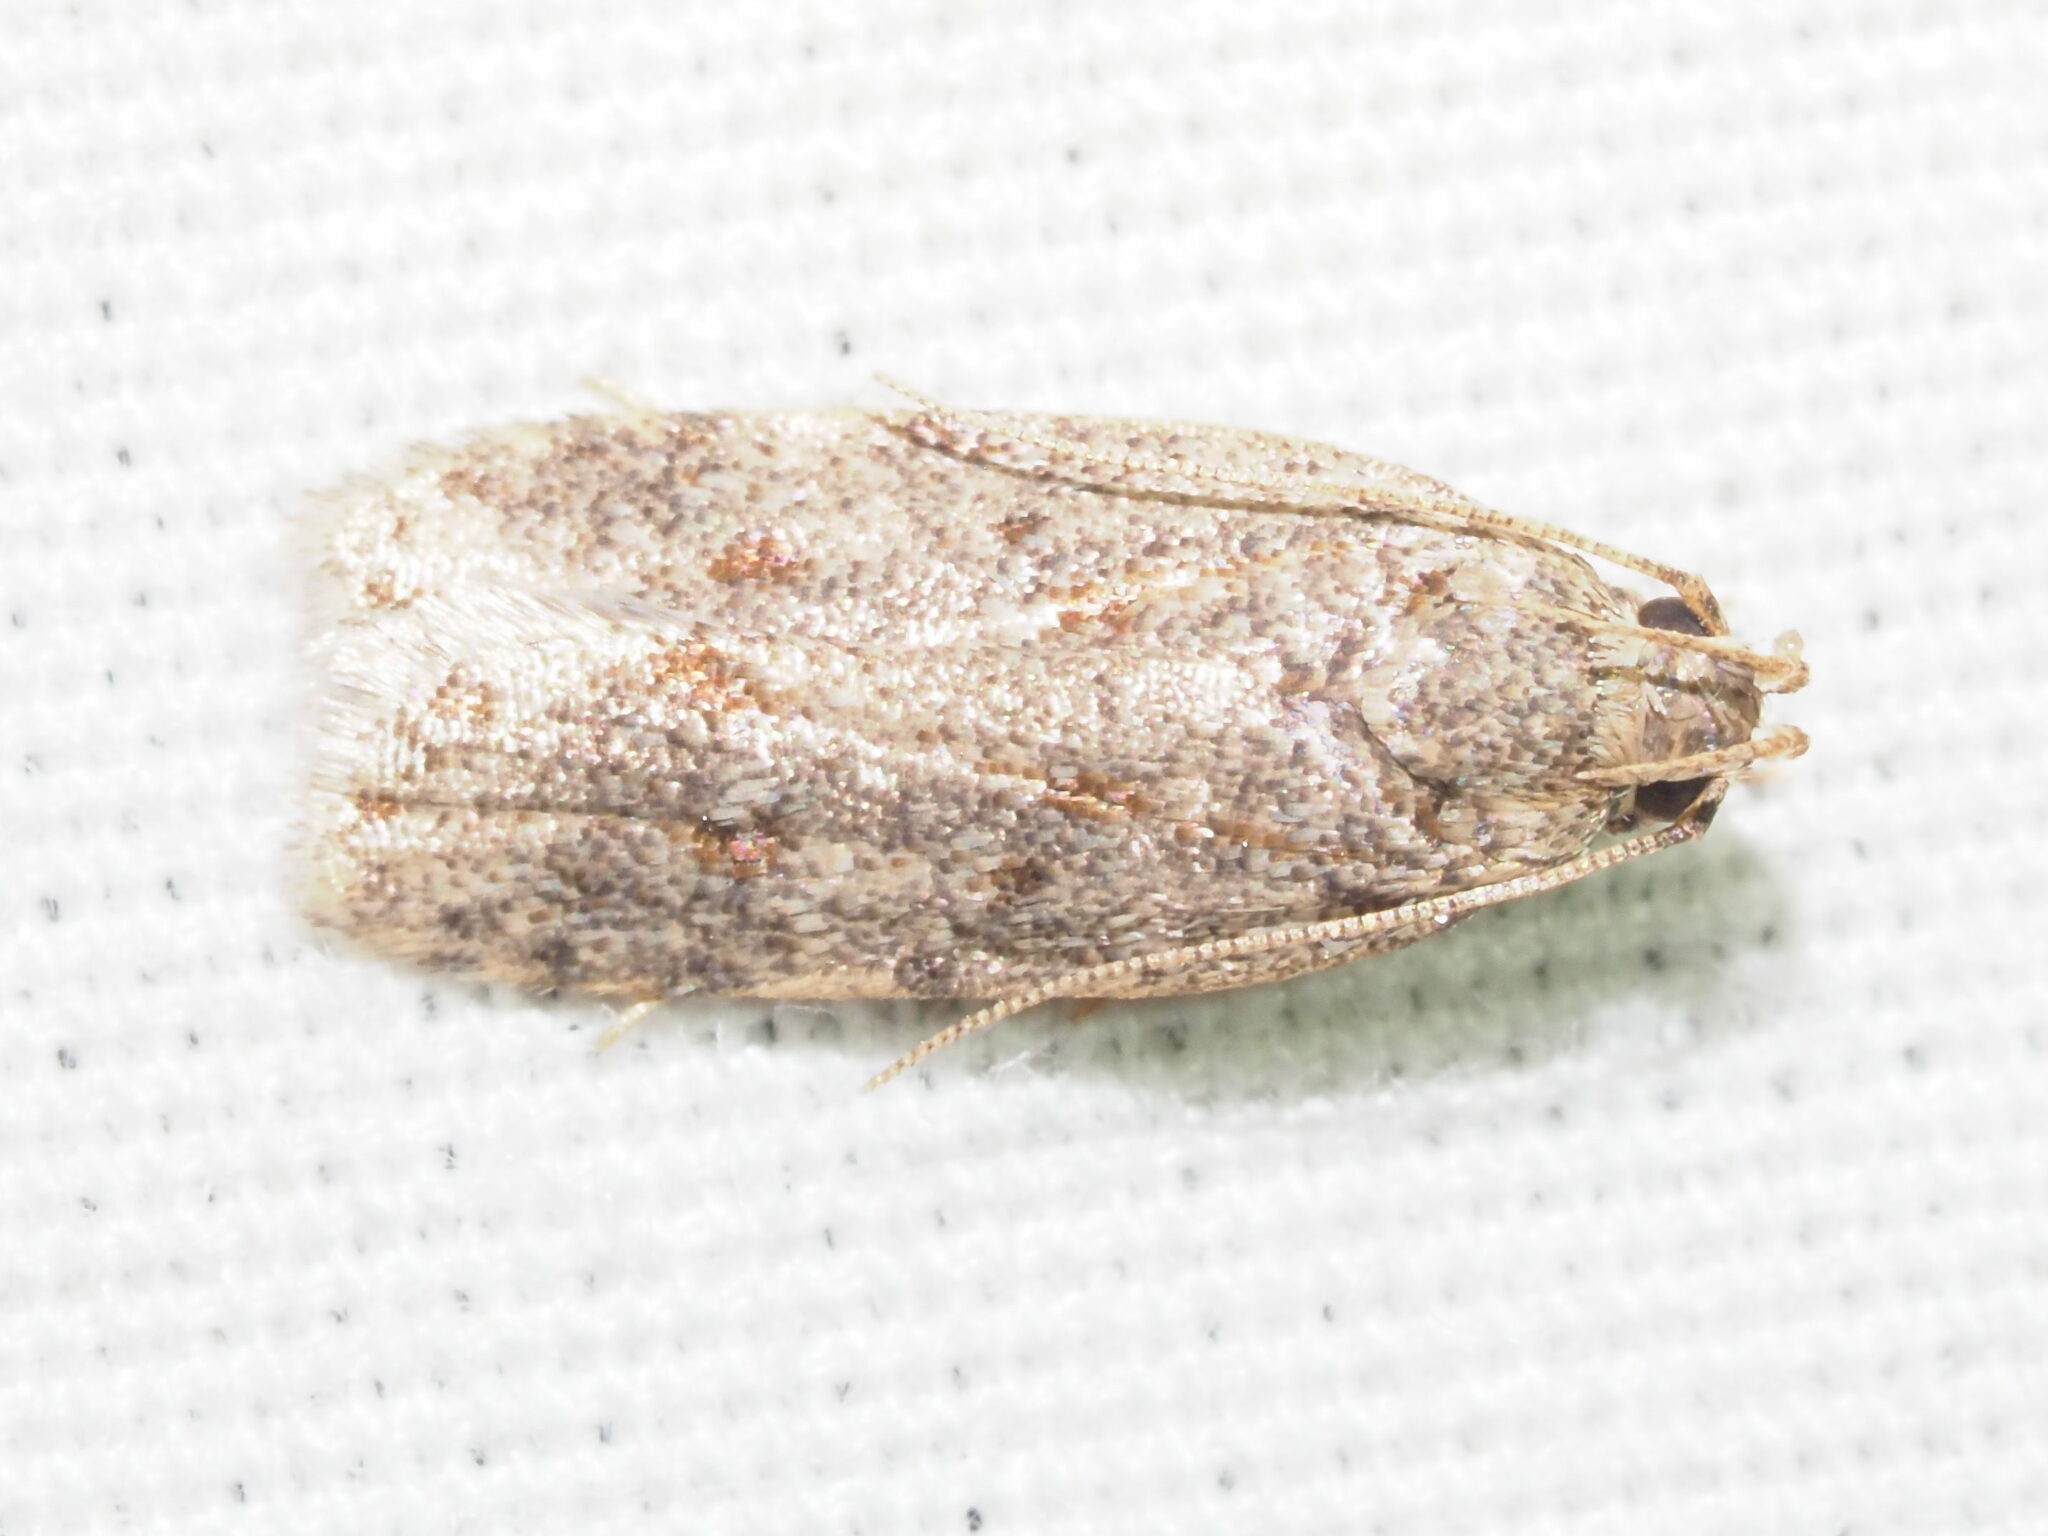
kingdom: Animalia
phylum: Arthropoda
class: Insecta
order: Lepidoptera
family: Autostichidae
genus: Stoeberhinus
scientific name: Stoeberhinus testaceus
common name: Moth
